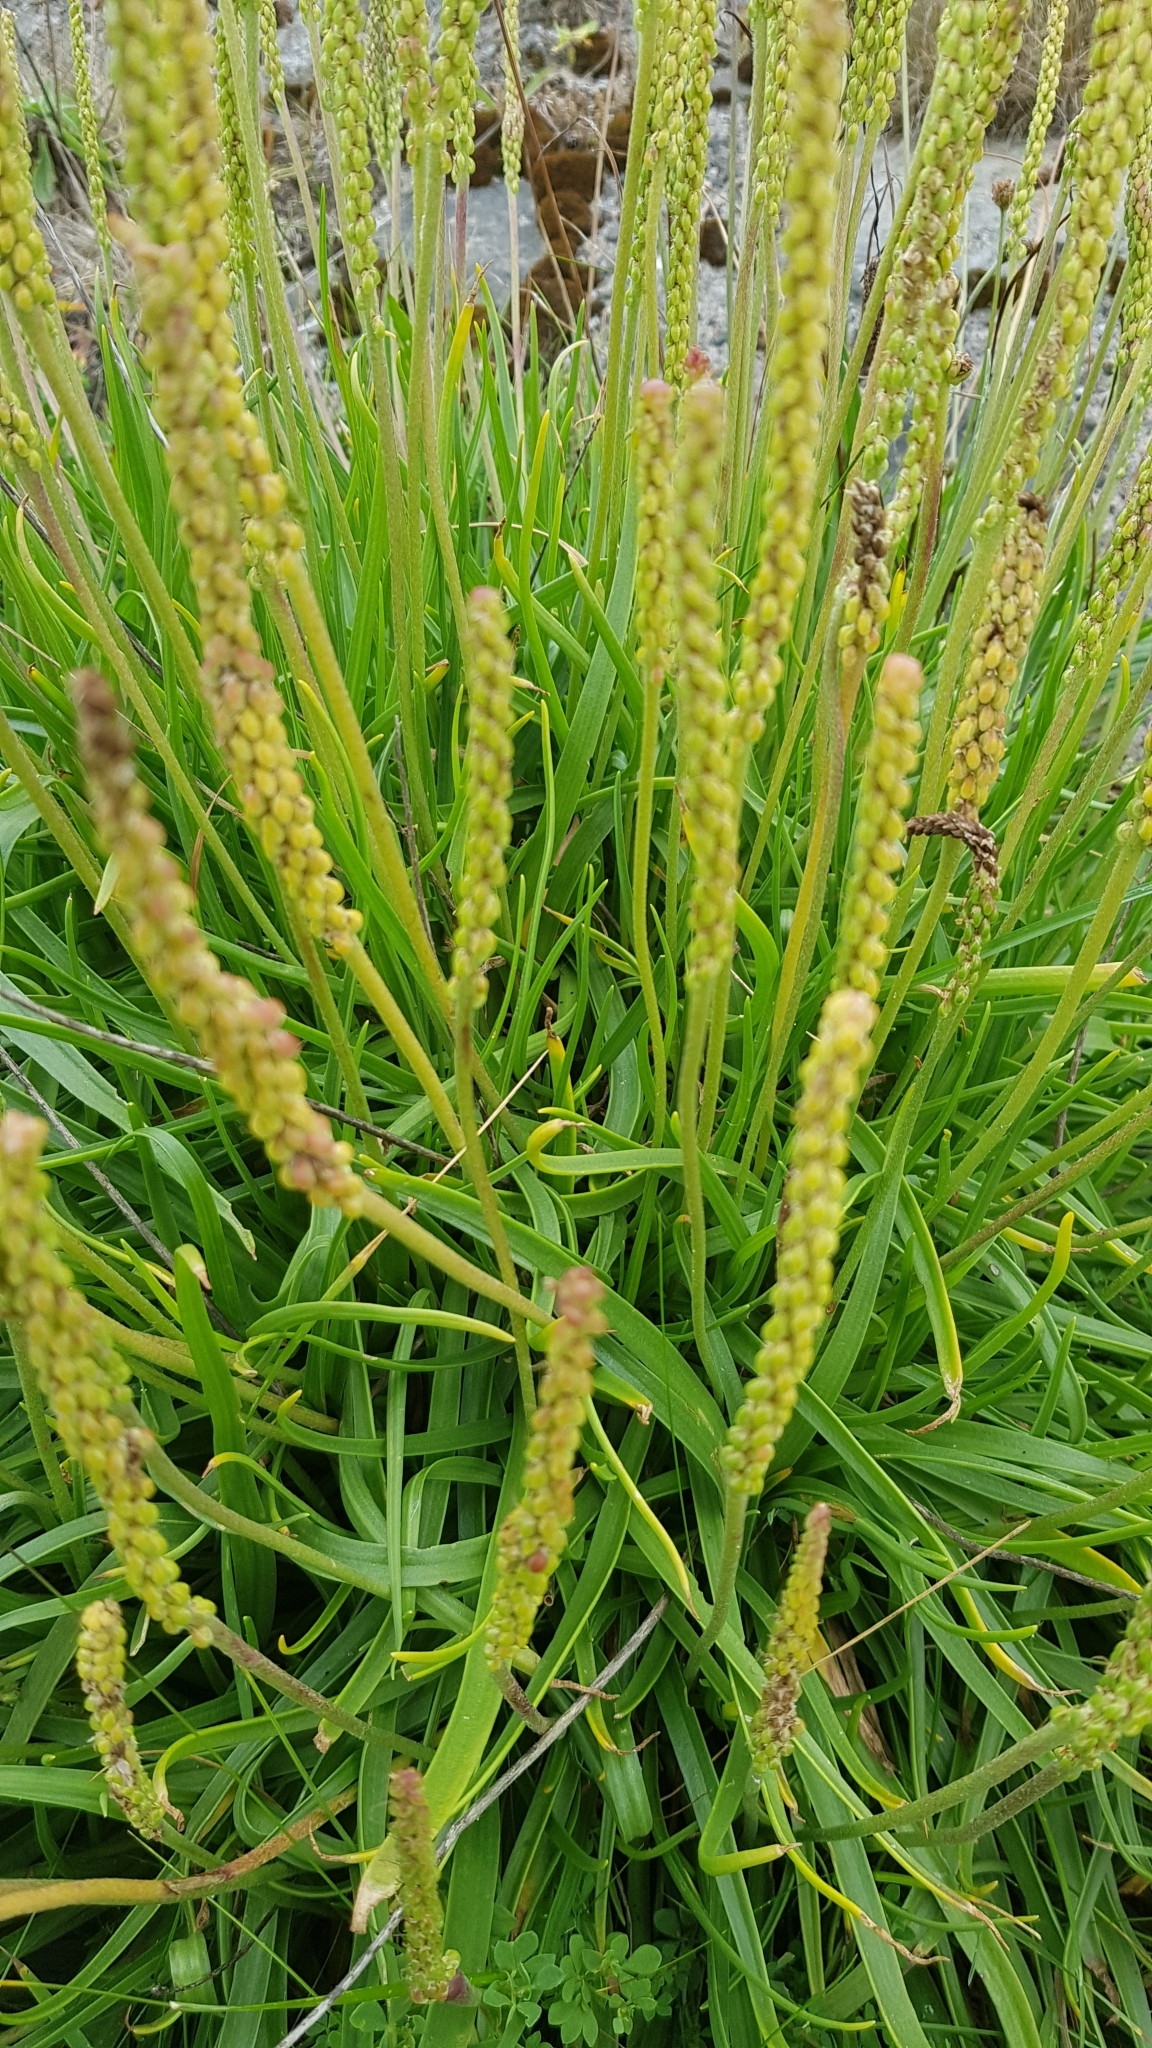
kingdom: Plantae
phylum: Tracheophyta
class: Magnoliopsida
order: Lamiales
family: Plantaginaceae
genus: Plantago
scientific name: Plantago maritima
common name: Sea plantain
